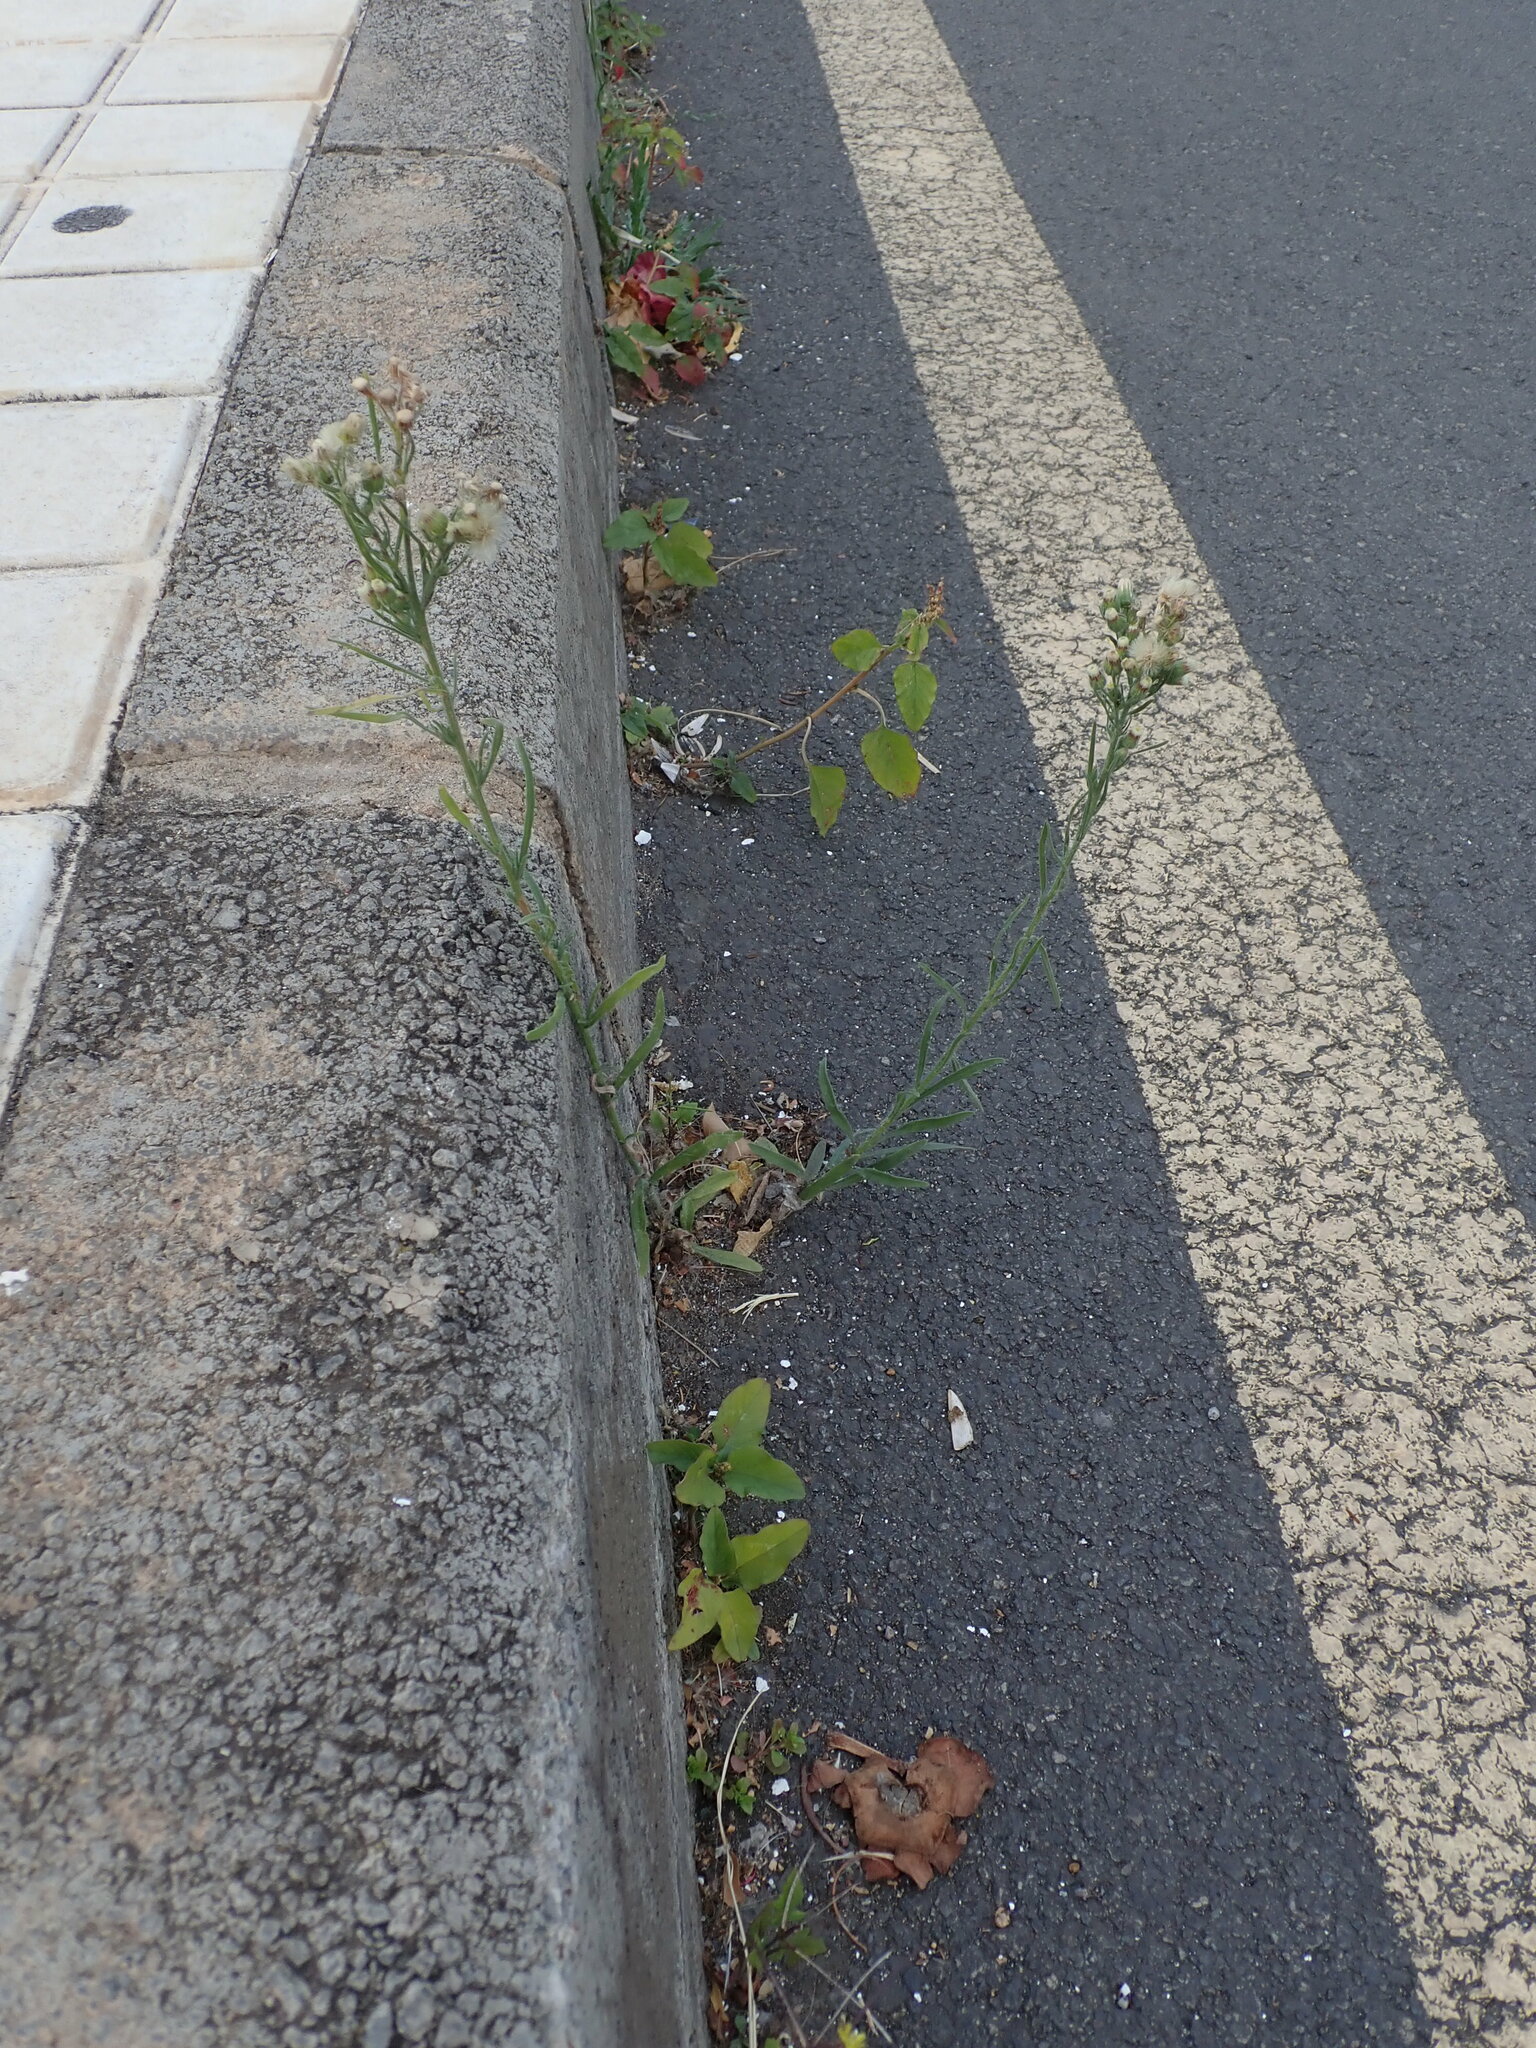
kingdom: Plantae
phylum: Tracheophyta
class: Magnoliopsida
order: Asterales
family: Asteraceae
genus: Erigeron
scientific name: Erigeron bonariensis
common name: Argentine fleabane
